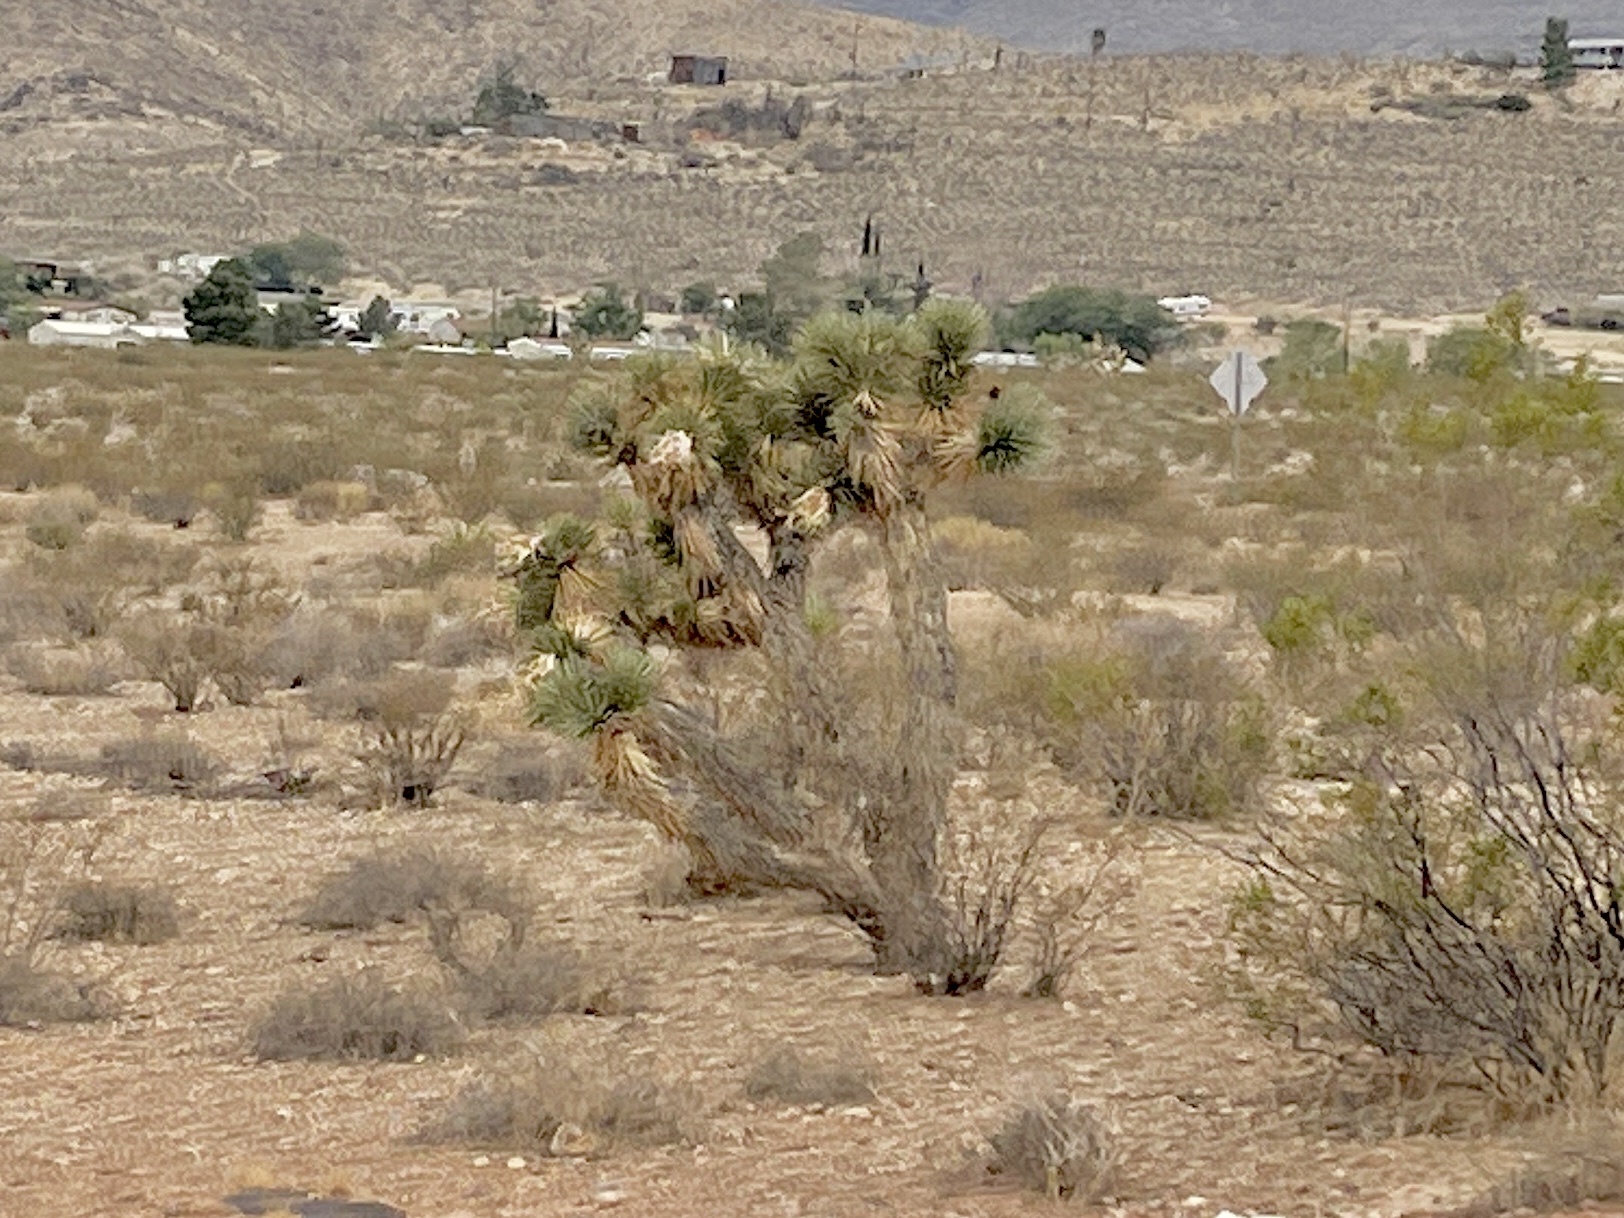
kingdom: Plantae
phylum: Tracheophyta
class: Liliopsida
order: Asparagales
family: Asparagaceae
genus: Yucca
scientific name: Yucca brevifolia
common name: Joshua tree
